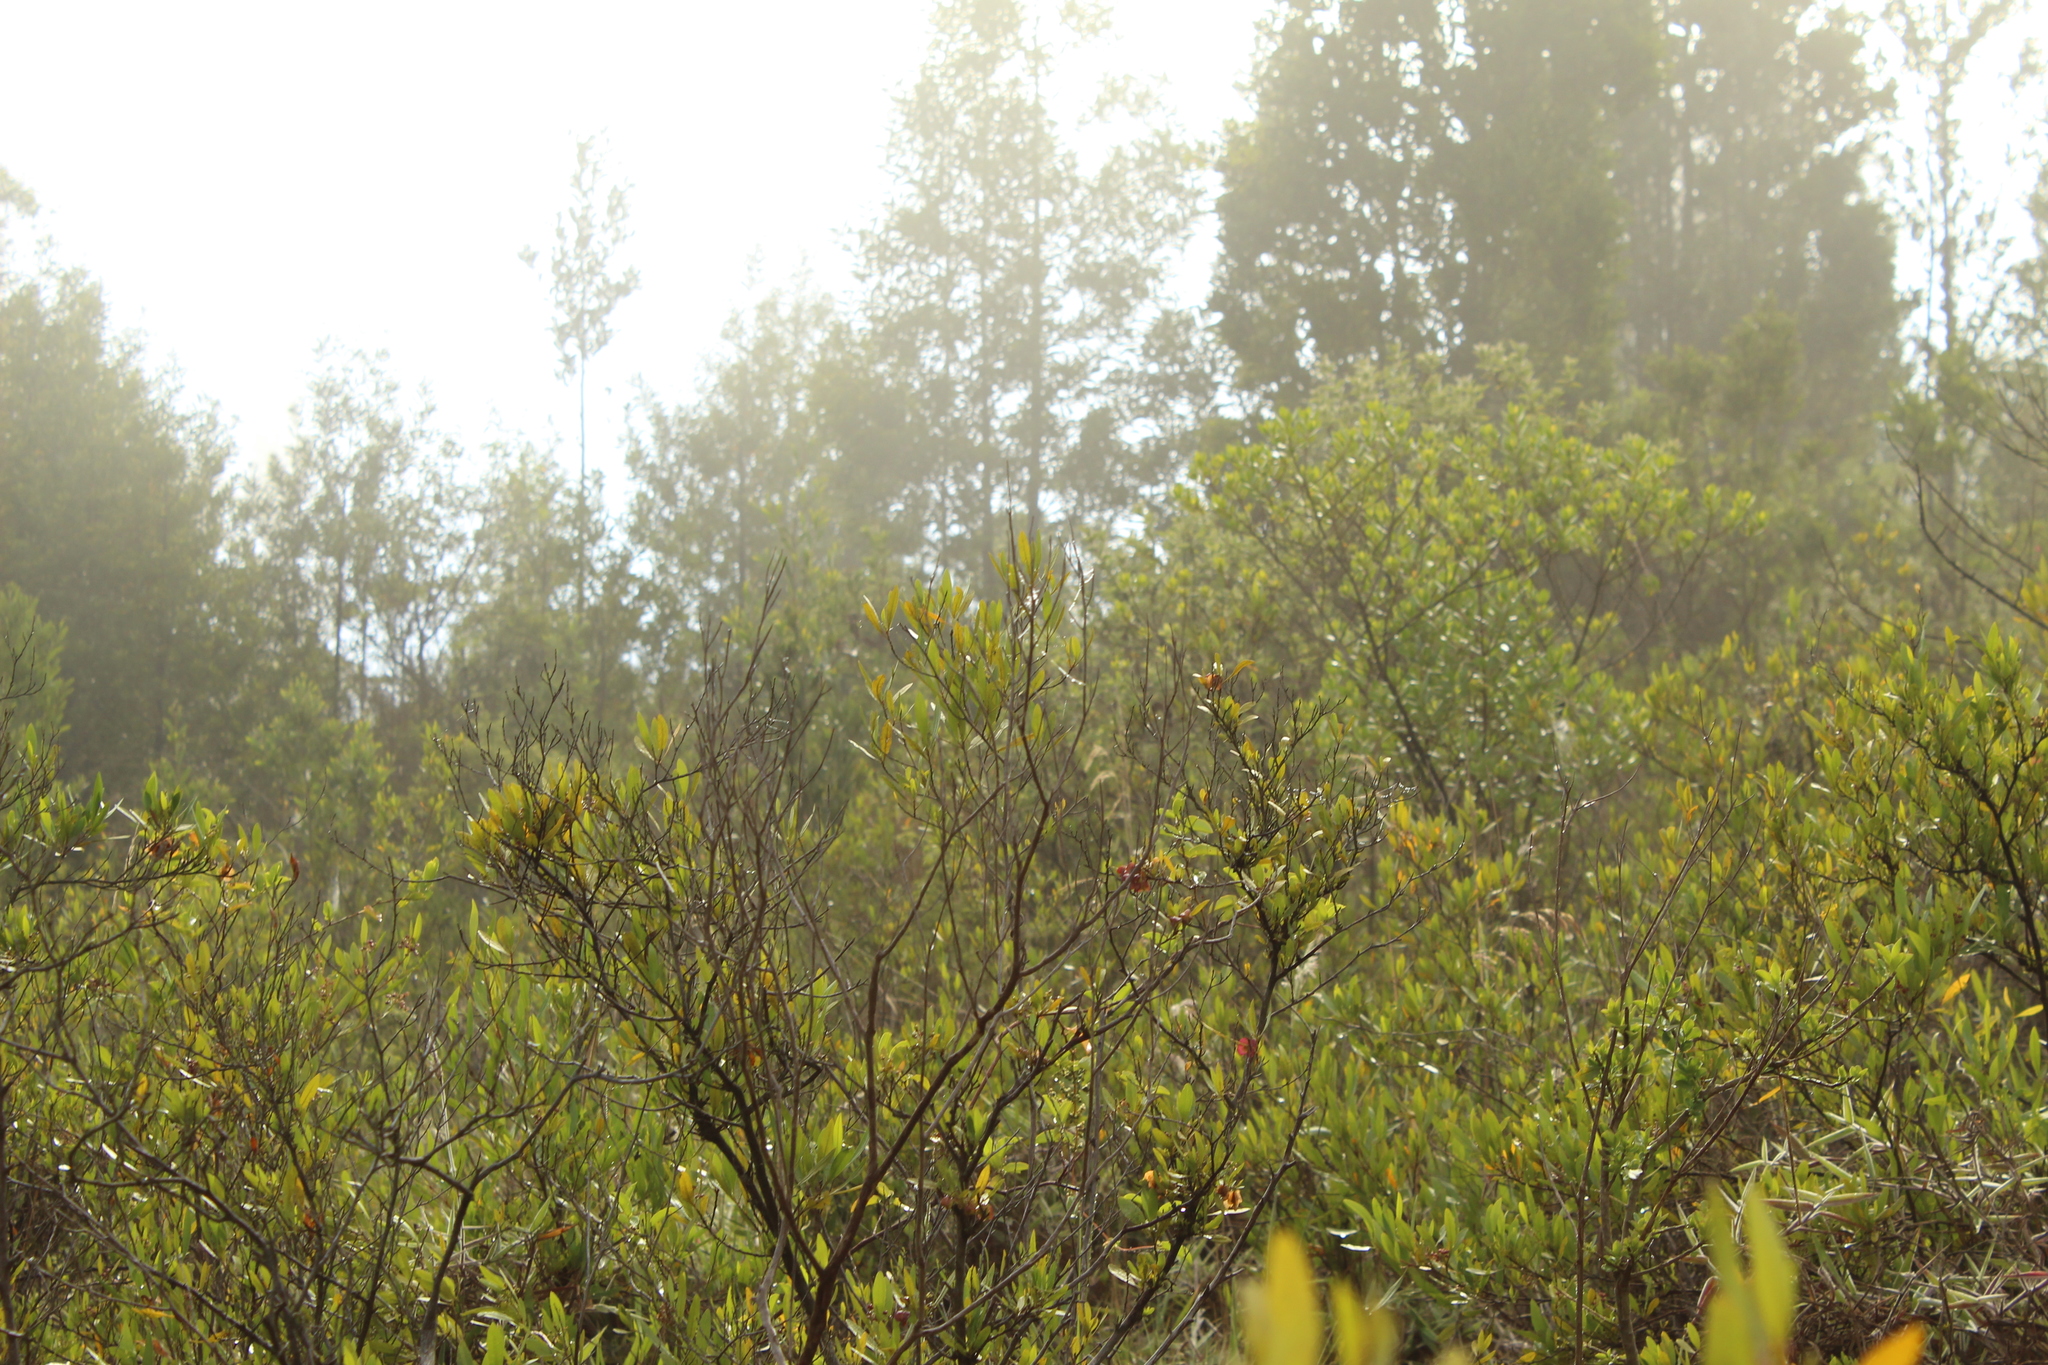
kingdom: Plantae
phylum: Tracheophyta
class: Magnoliopsida
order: Sapindales
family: Sapindaceae
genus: Dodonaea
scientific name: Dodonaea viscosa
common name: Hopbush
